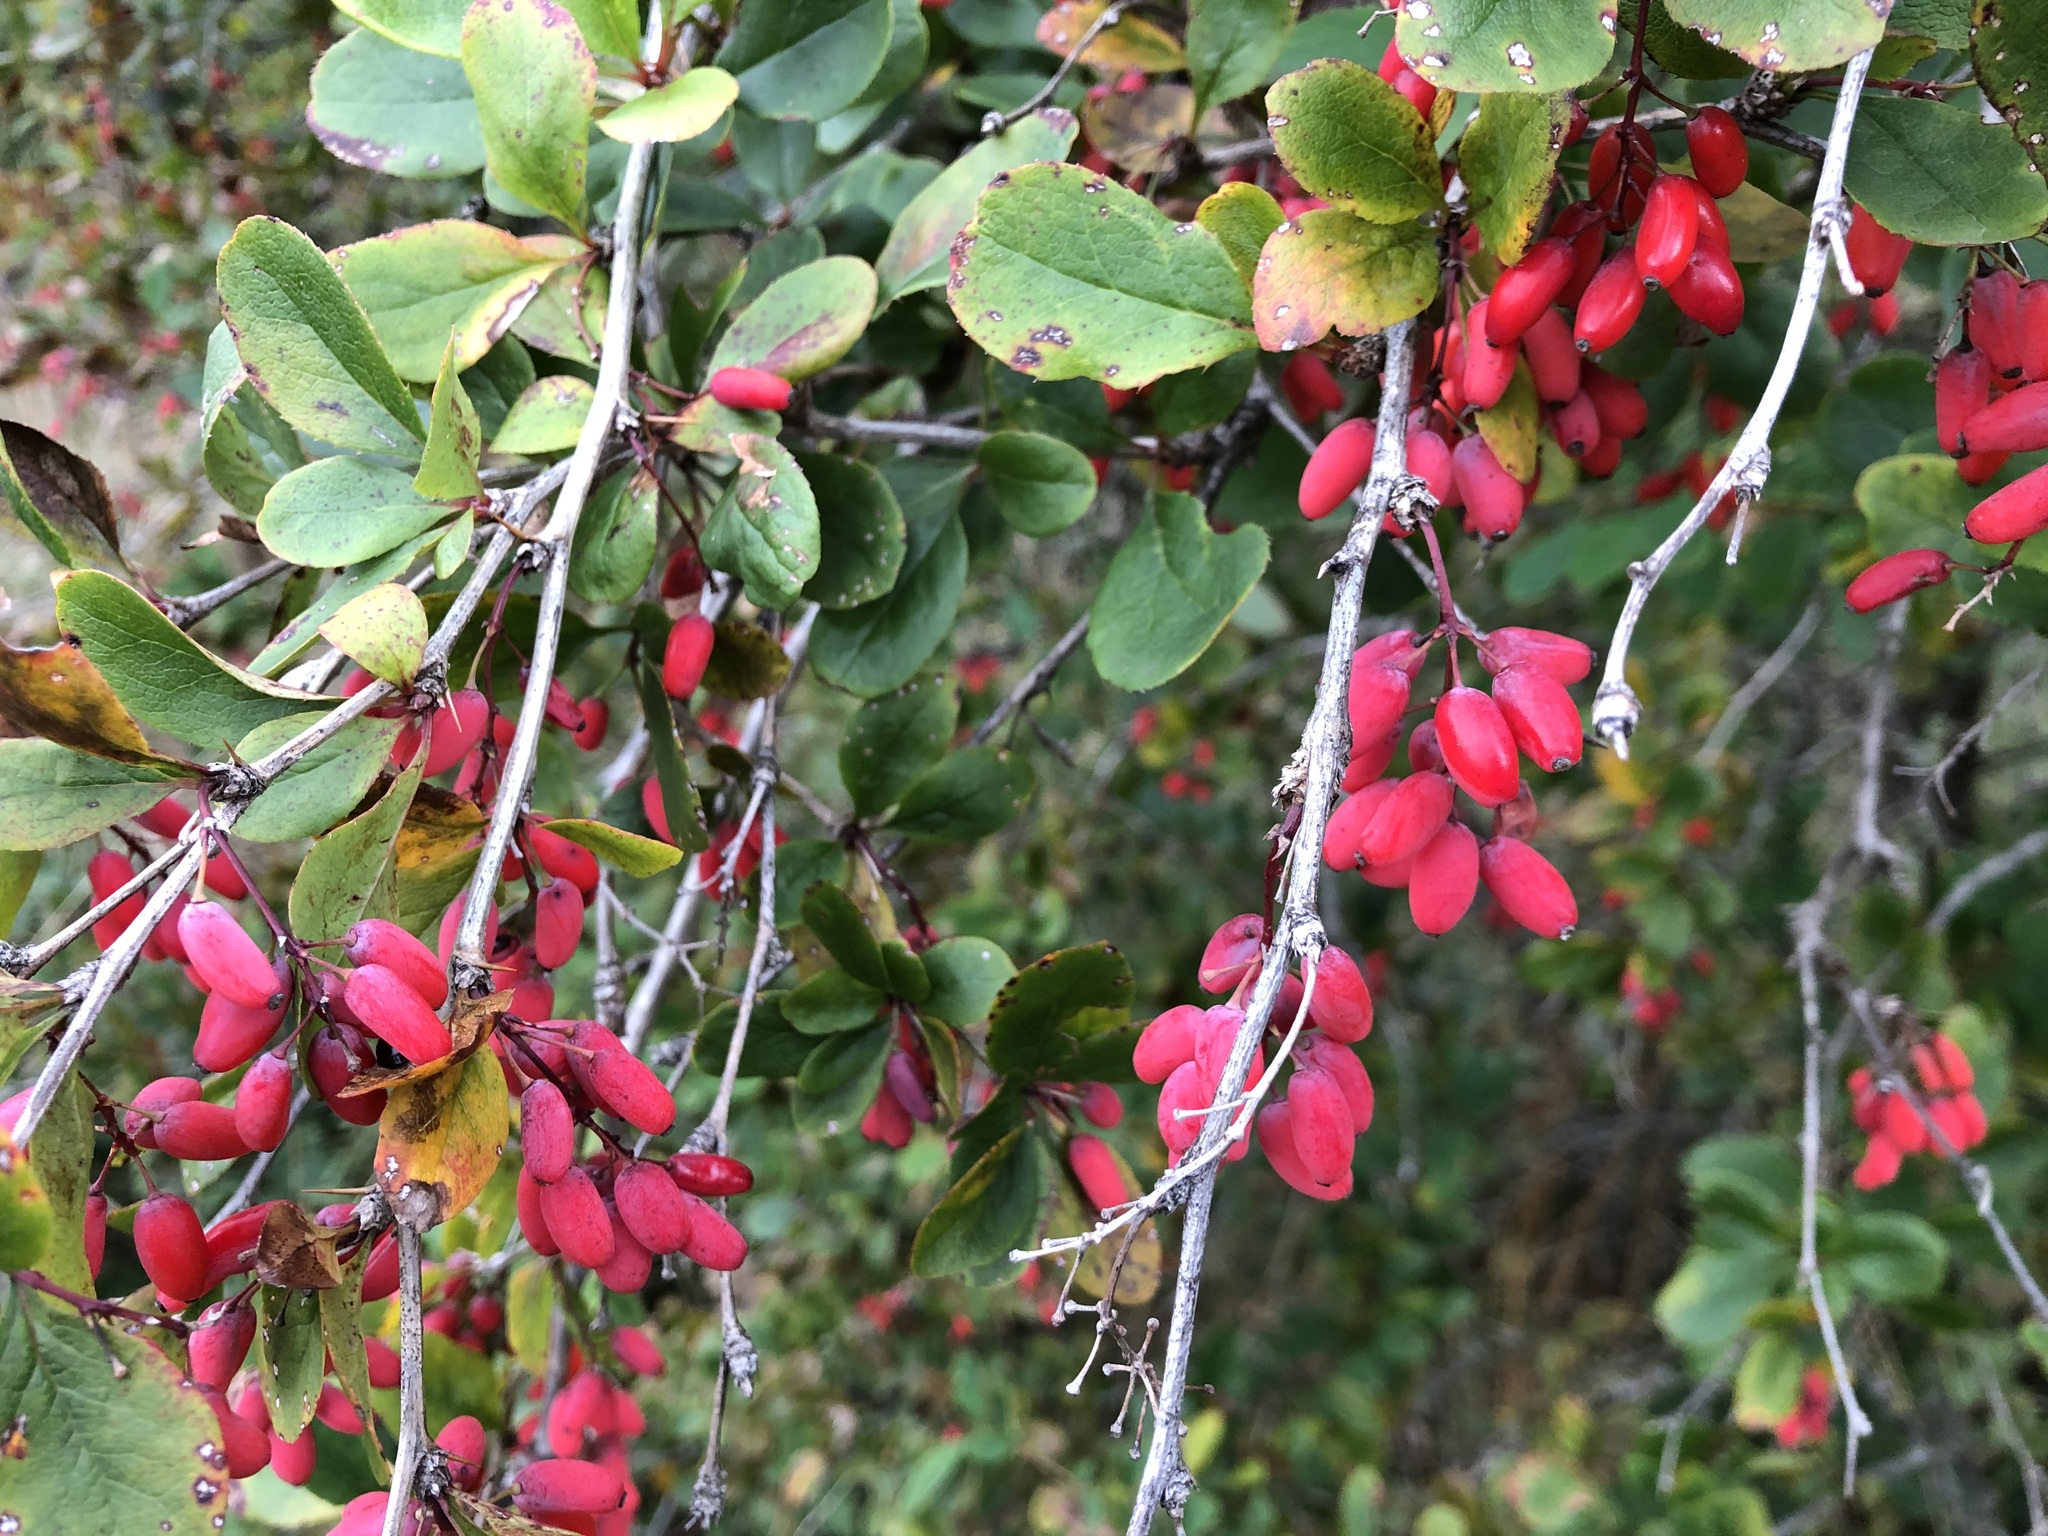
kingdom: Plantae
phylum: Tracheophyta
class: Magnoliopsida
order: Ranunculales
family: Berberidaceae
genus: Berberis
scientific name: Berberis vulgaris
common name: Barberry
